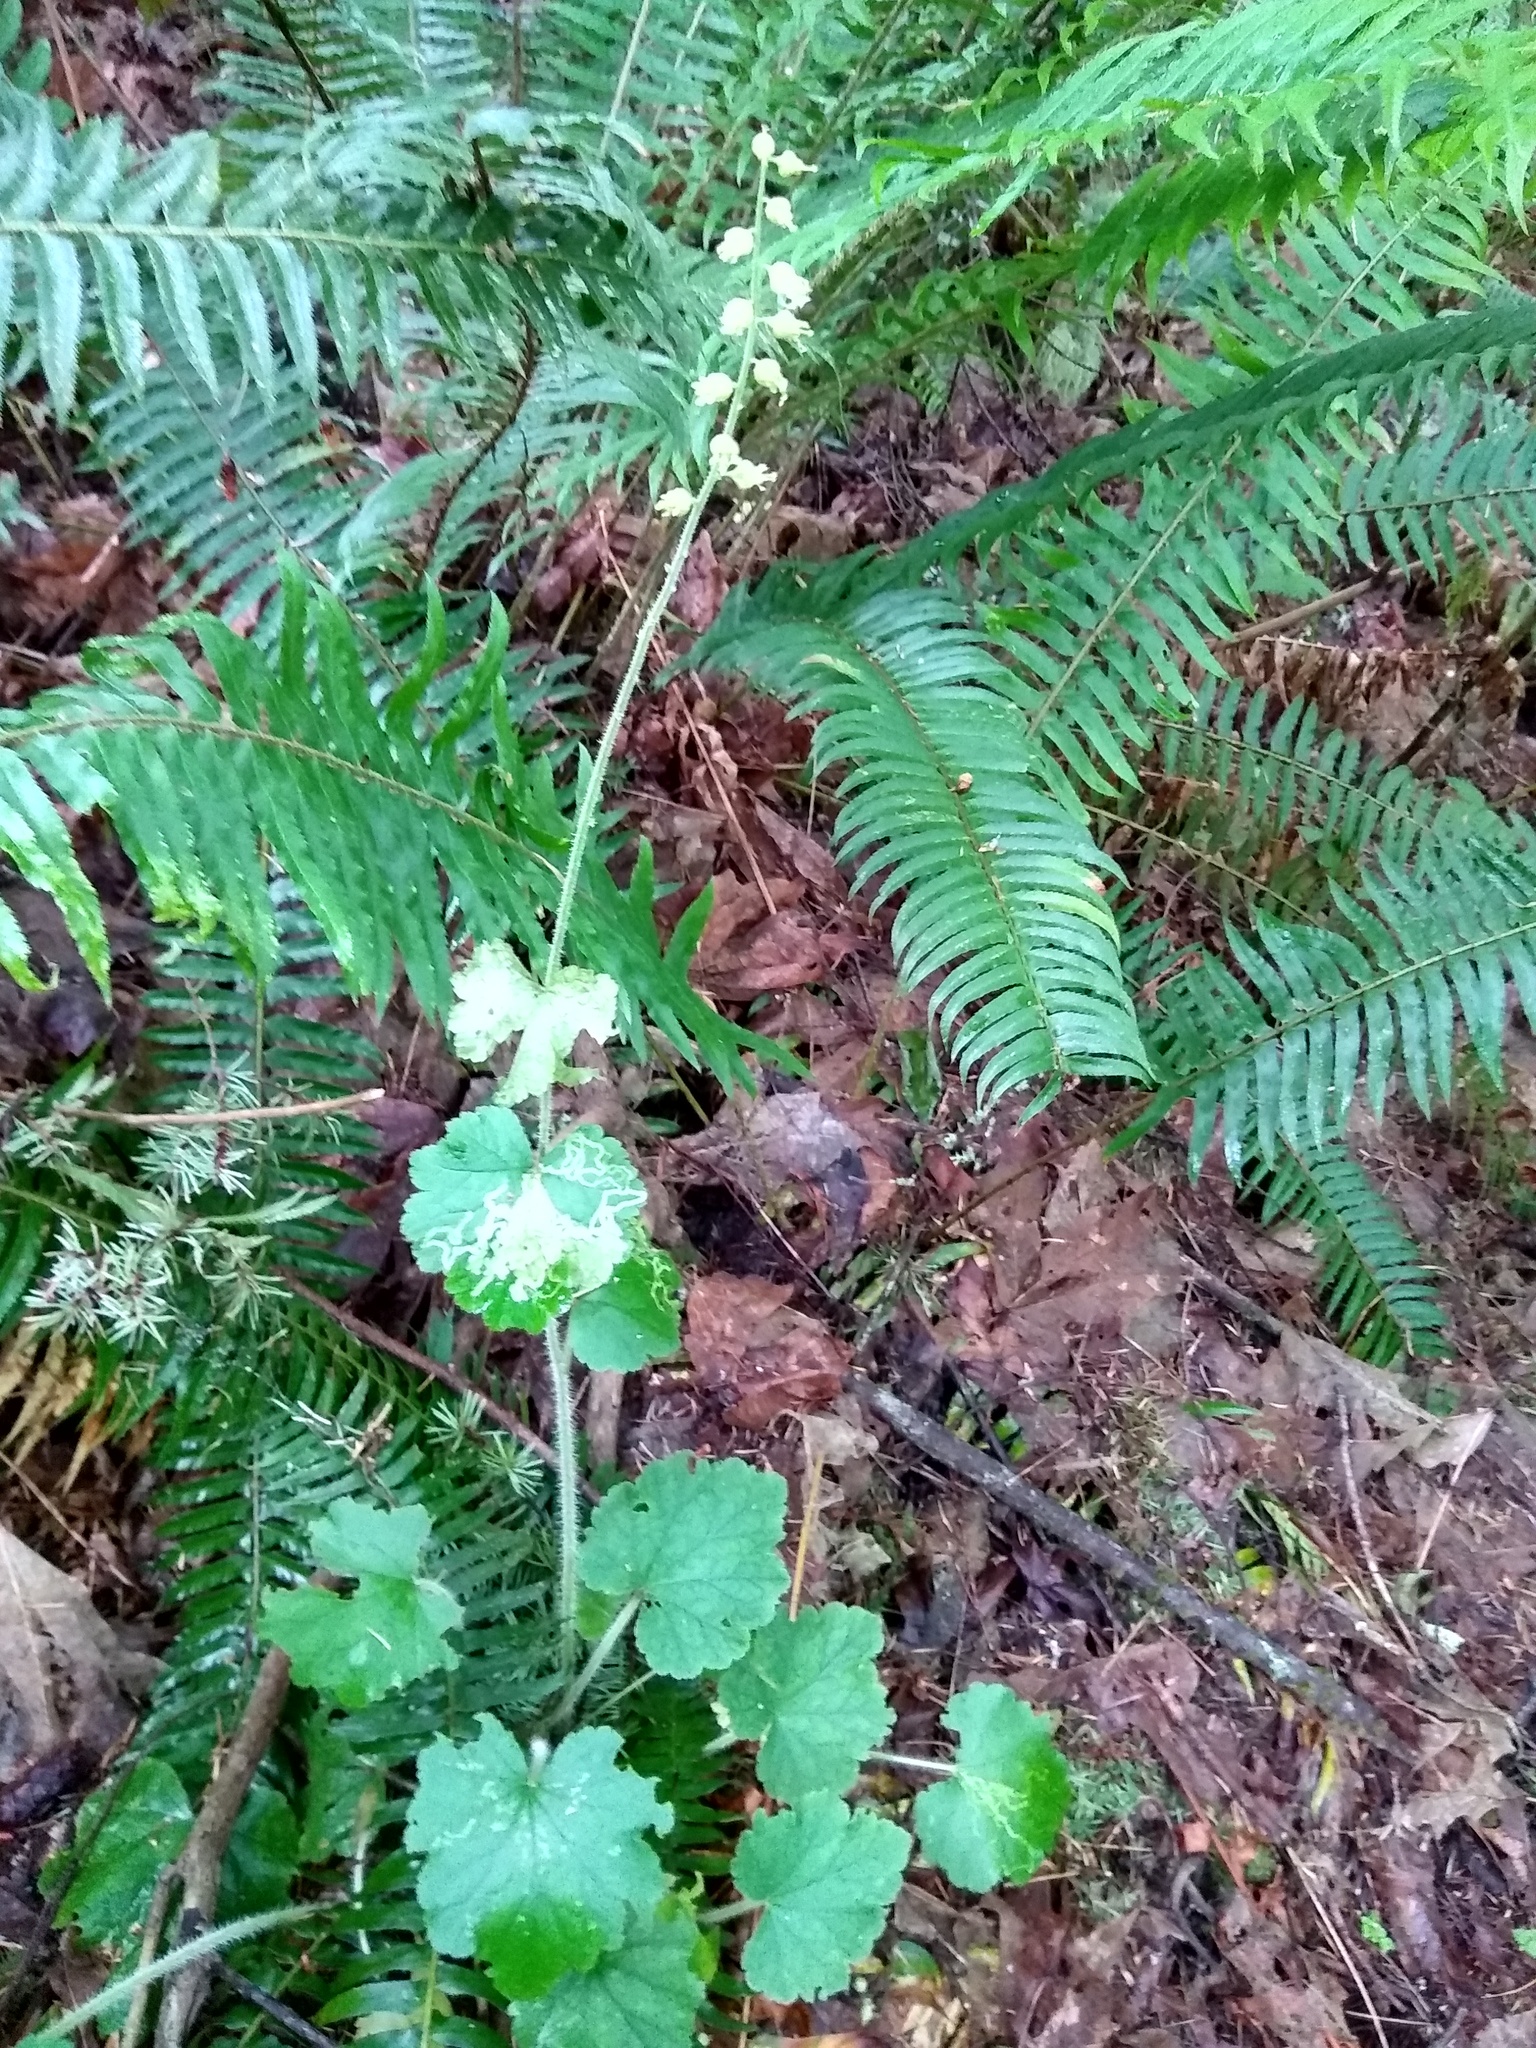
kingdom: Plantae
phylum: Tracheophyta
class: Magnoliopsida
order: Saxifragales
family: Saxifragaceae
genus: Tellima
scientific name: Tellima grandiflora
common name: Fringecups
